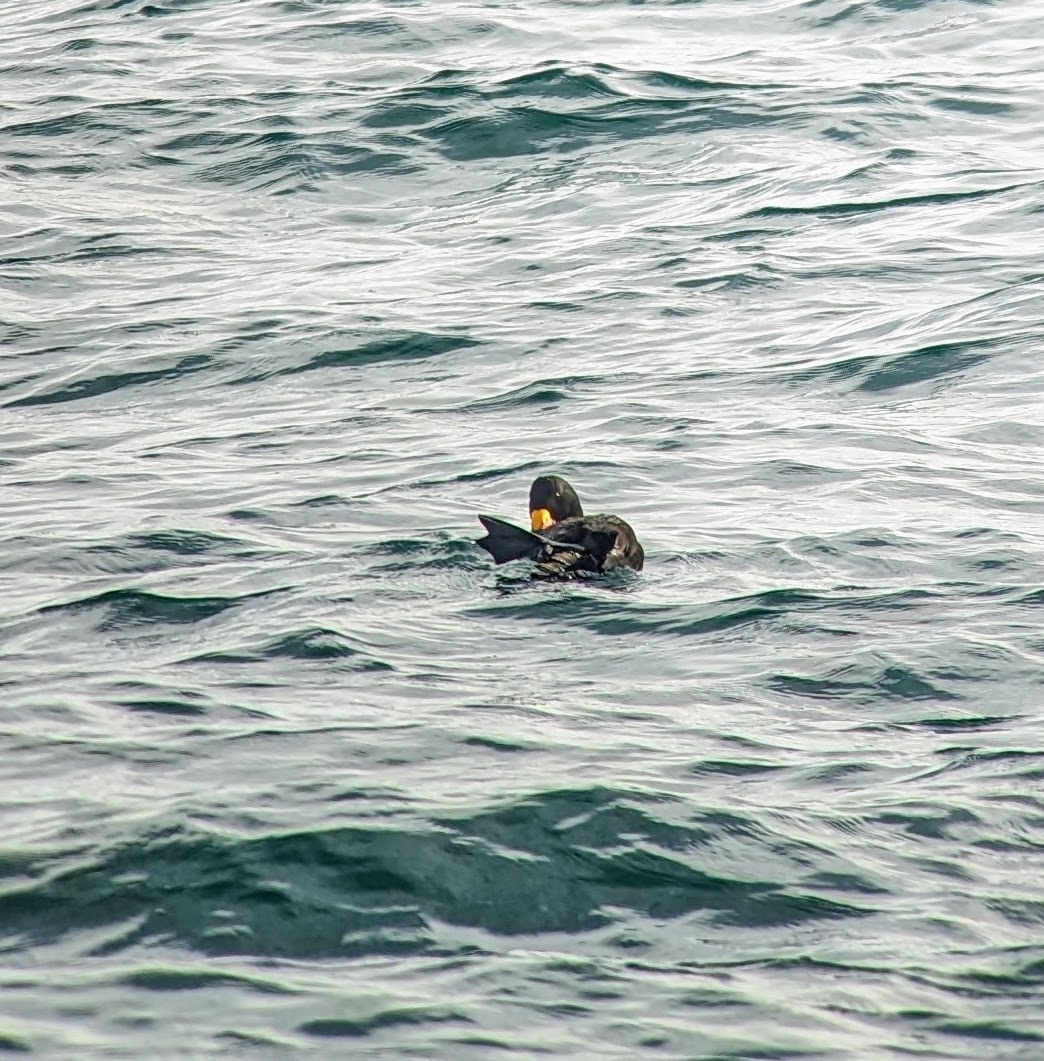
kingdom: Animalia
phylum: Chordata
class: Aves
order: Anseriformes
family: Anatidae
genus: Melanitta
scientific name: Melanitta americana
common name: Black scoter
